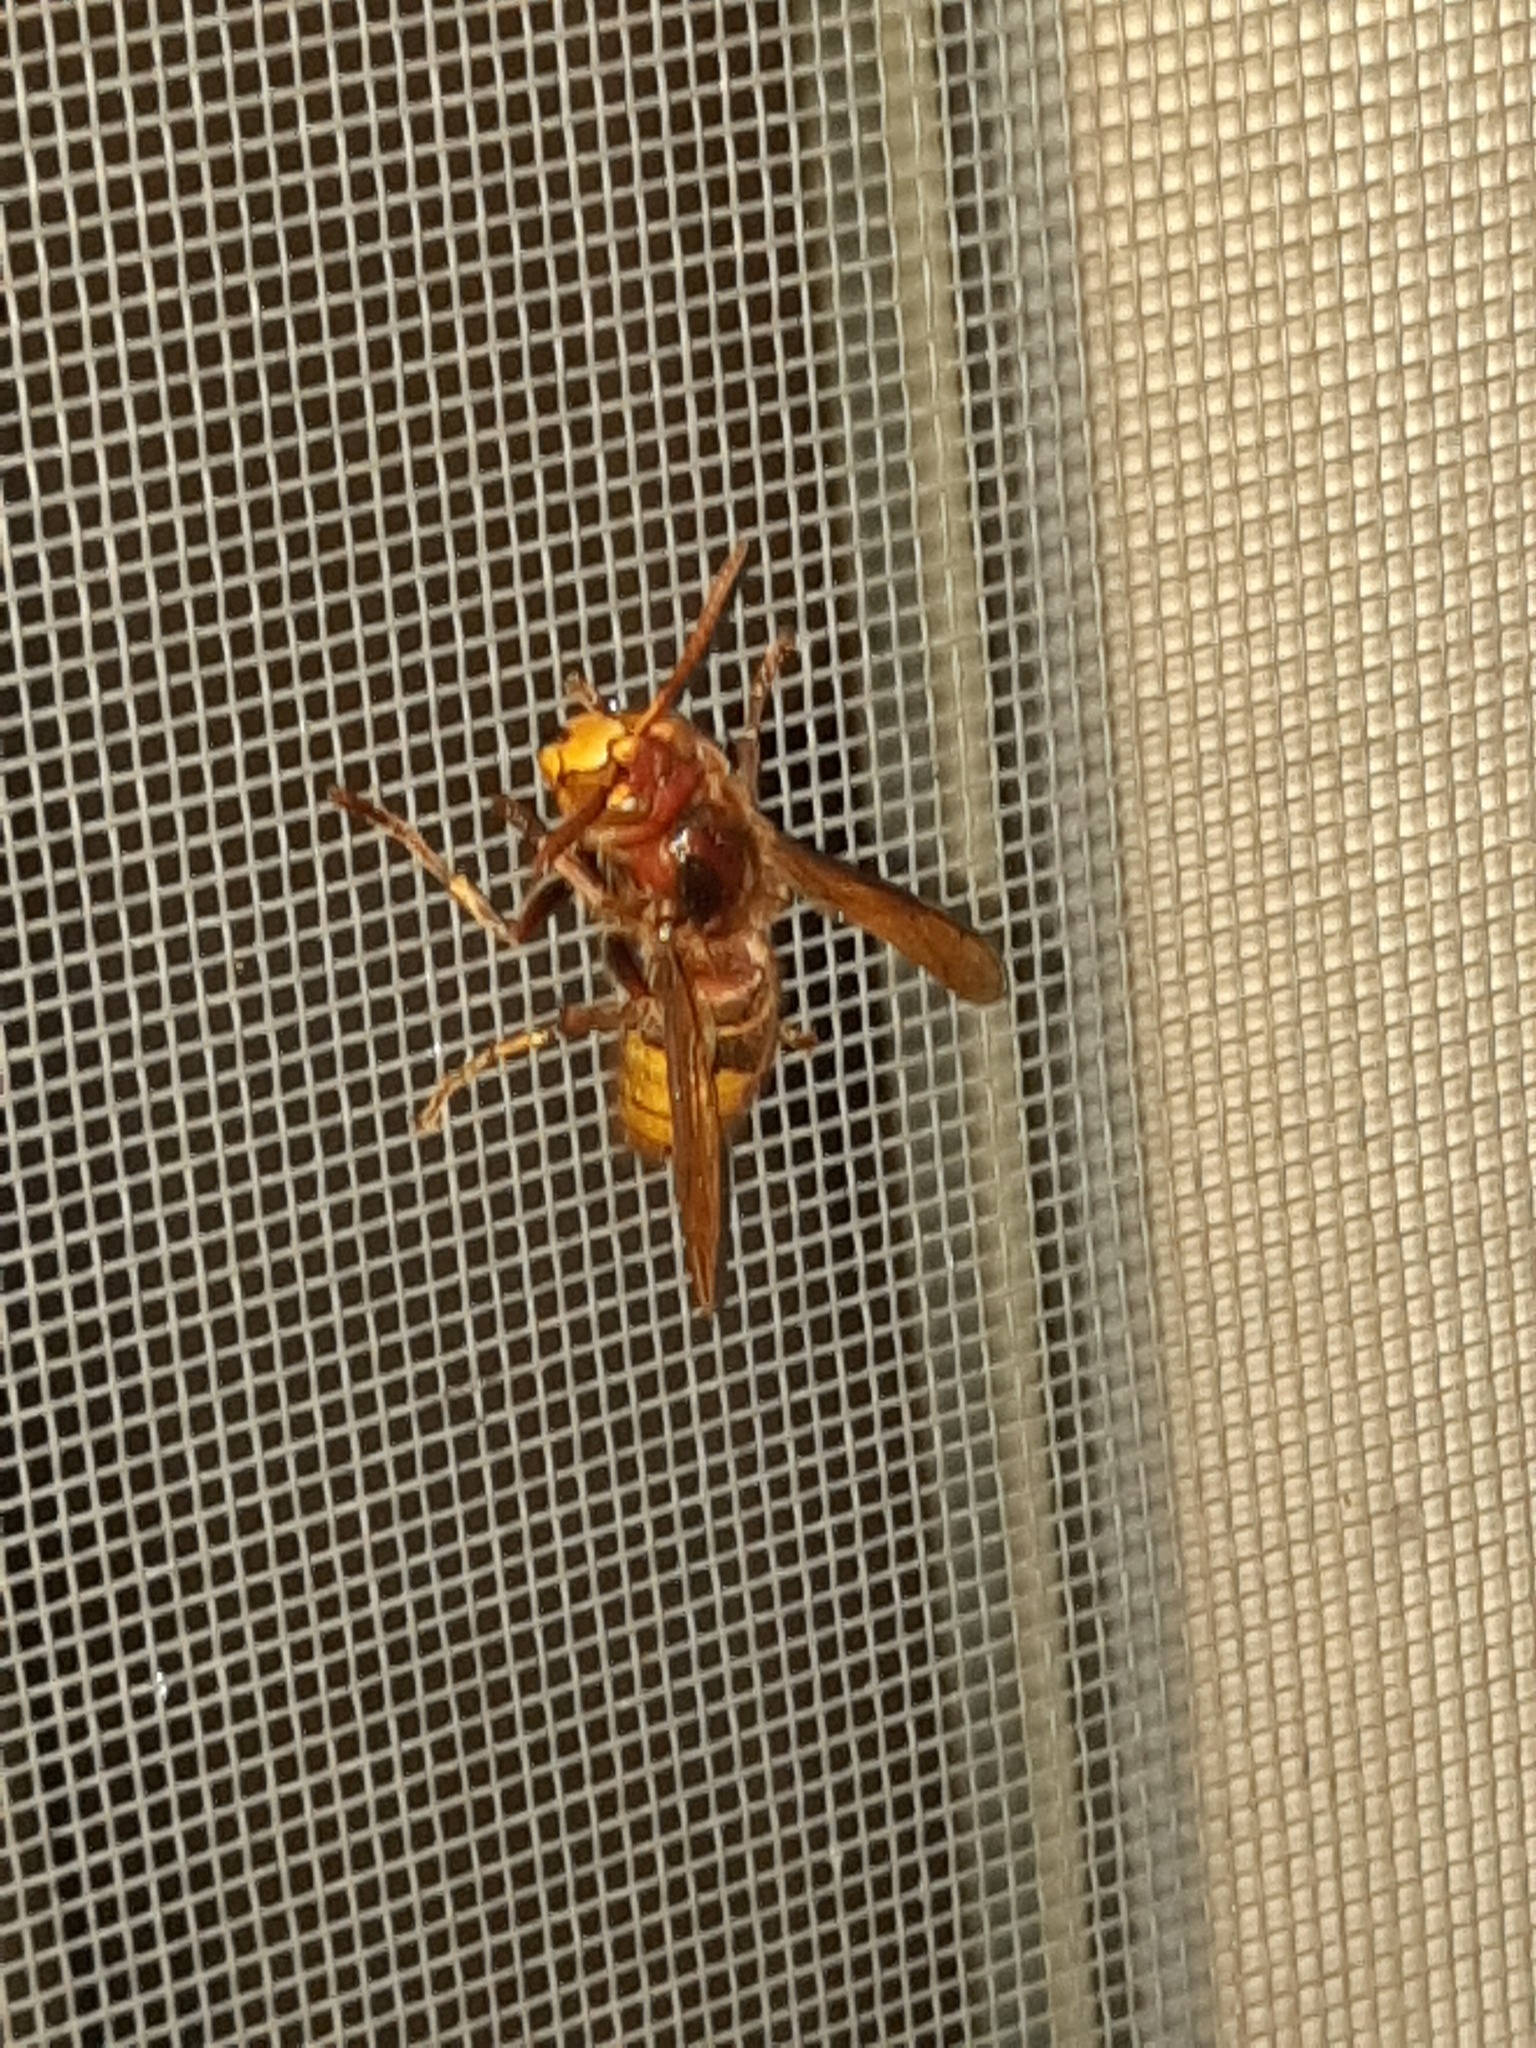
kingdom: Animalia
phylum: Arthropoda
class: Insecta
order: Hymenoptera
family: Vespidae
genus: Vespa
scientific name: Vespa crabro
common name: Hornet
